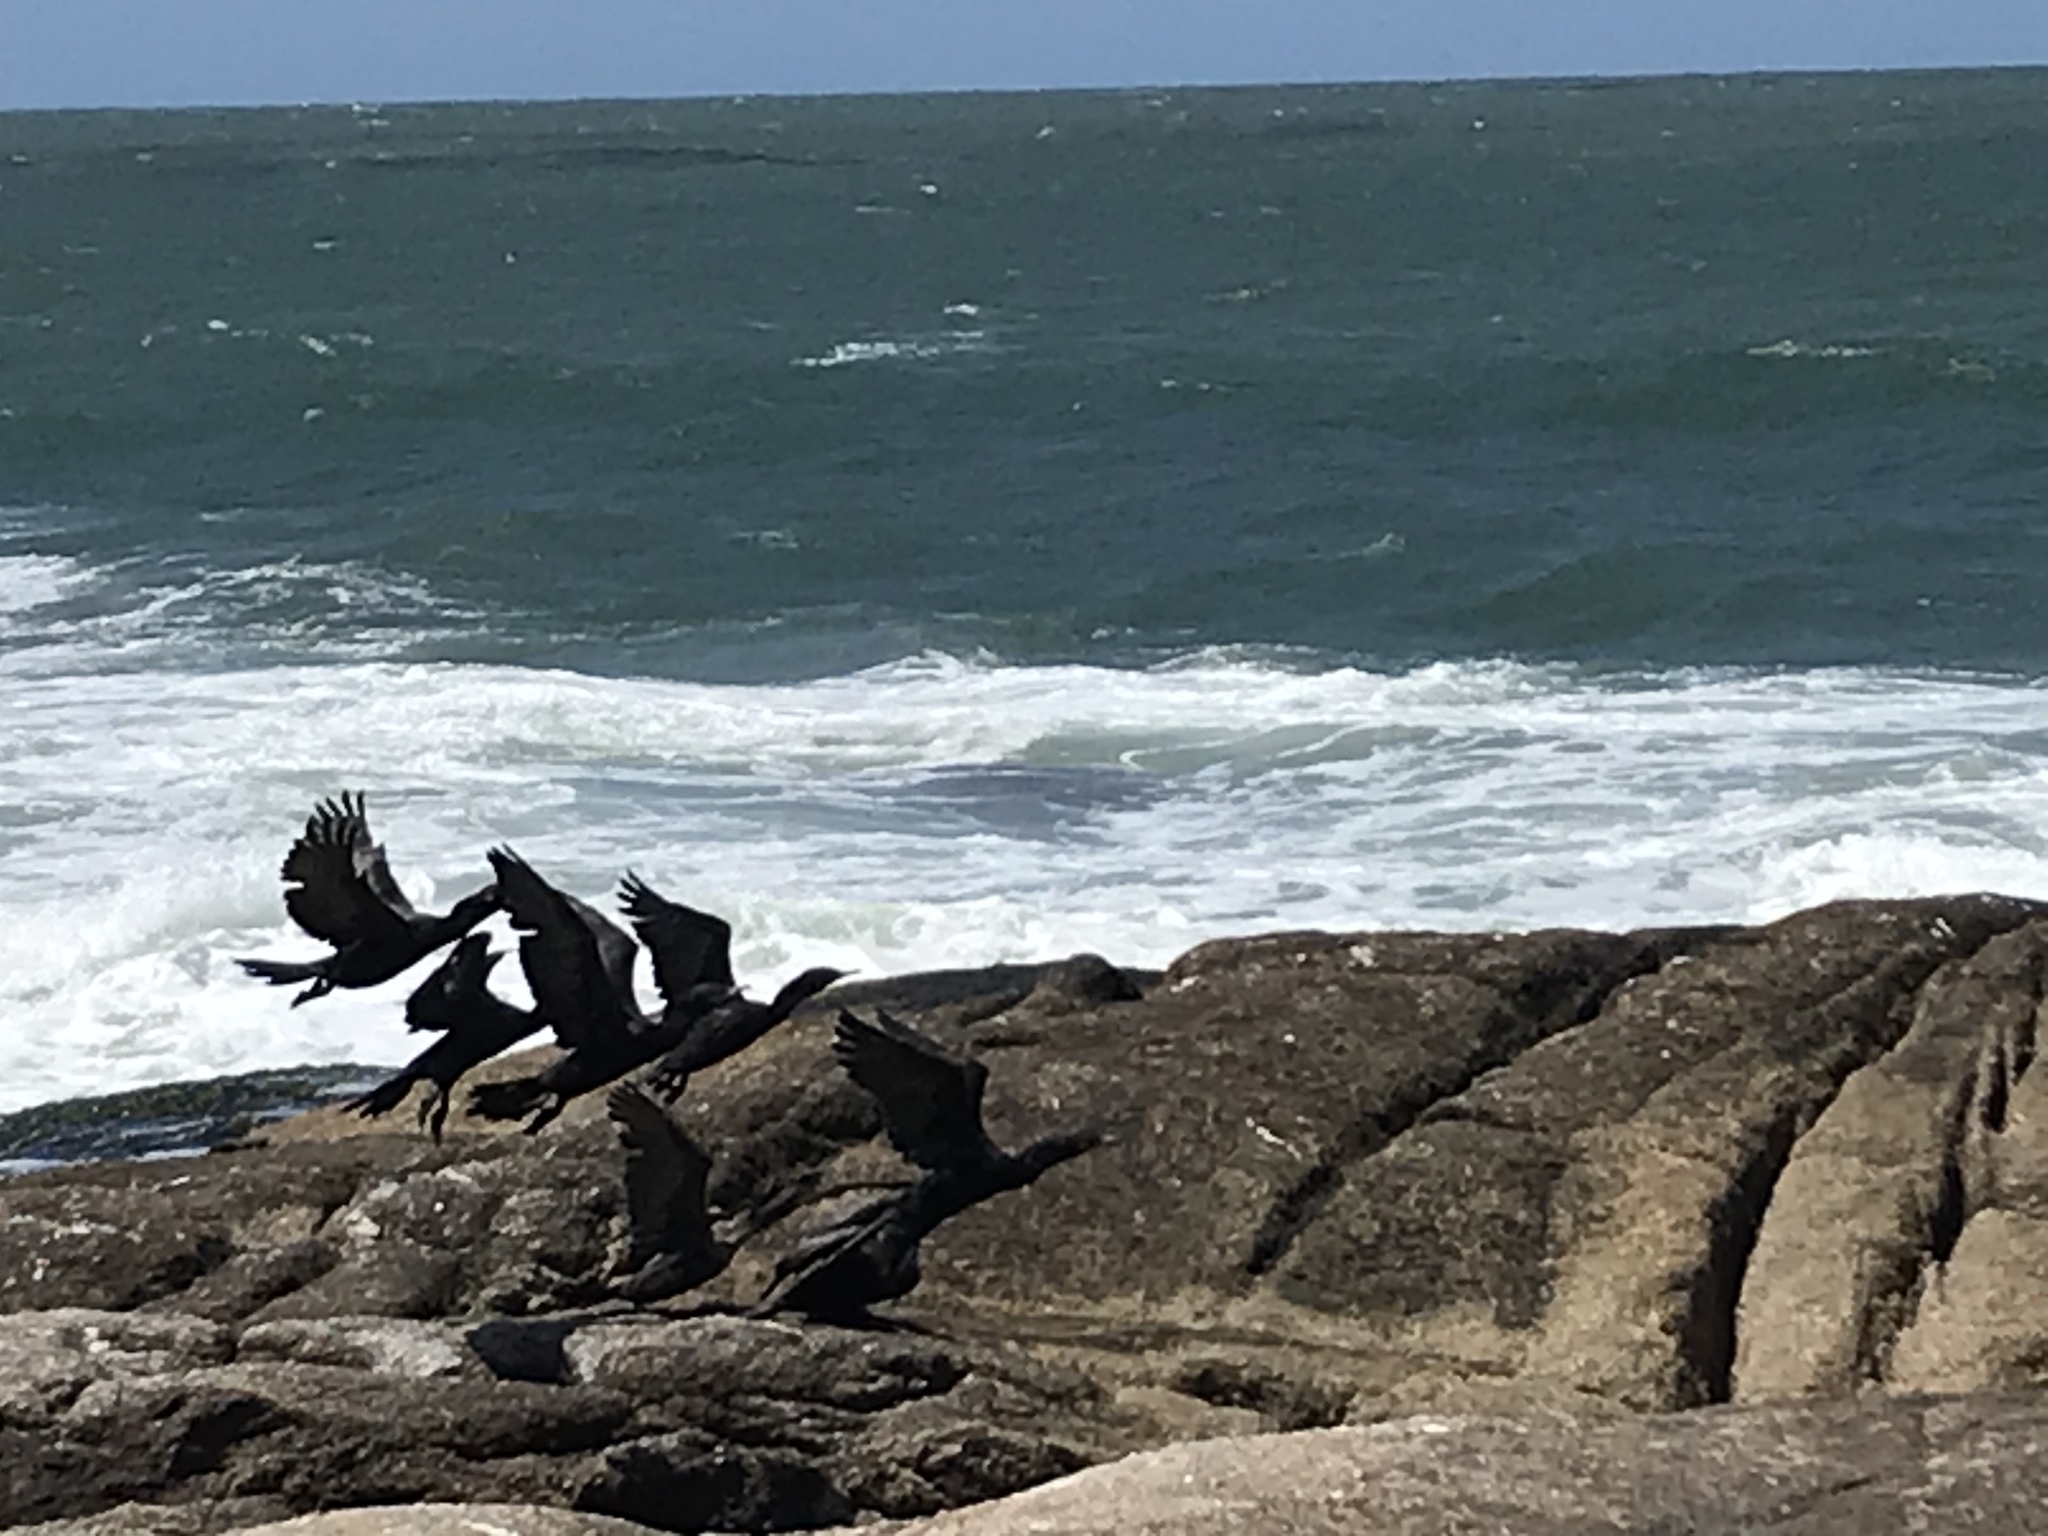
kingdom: Animalia
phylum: Chordata
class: Aves
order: Suliformes
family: Phalacrocoracidae
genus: Phalacrocorax
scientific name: Phalacrocorax brasilianus
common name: Neotropic cormorant
